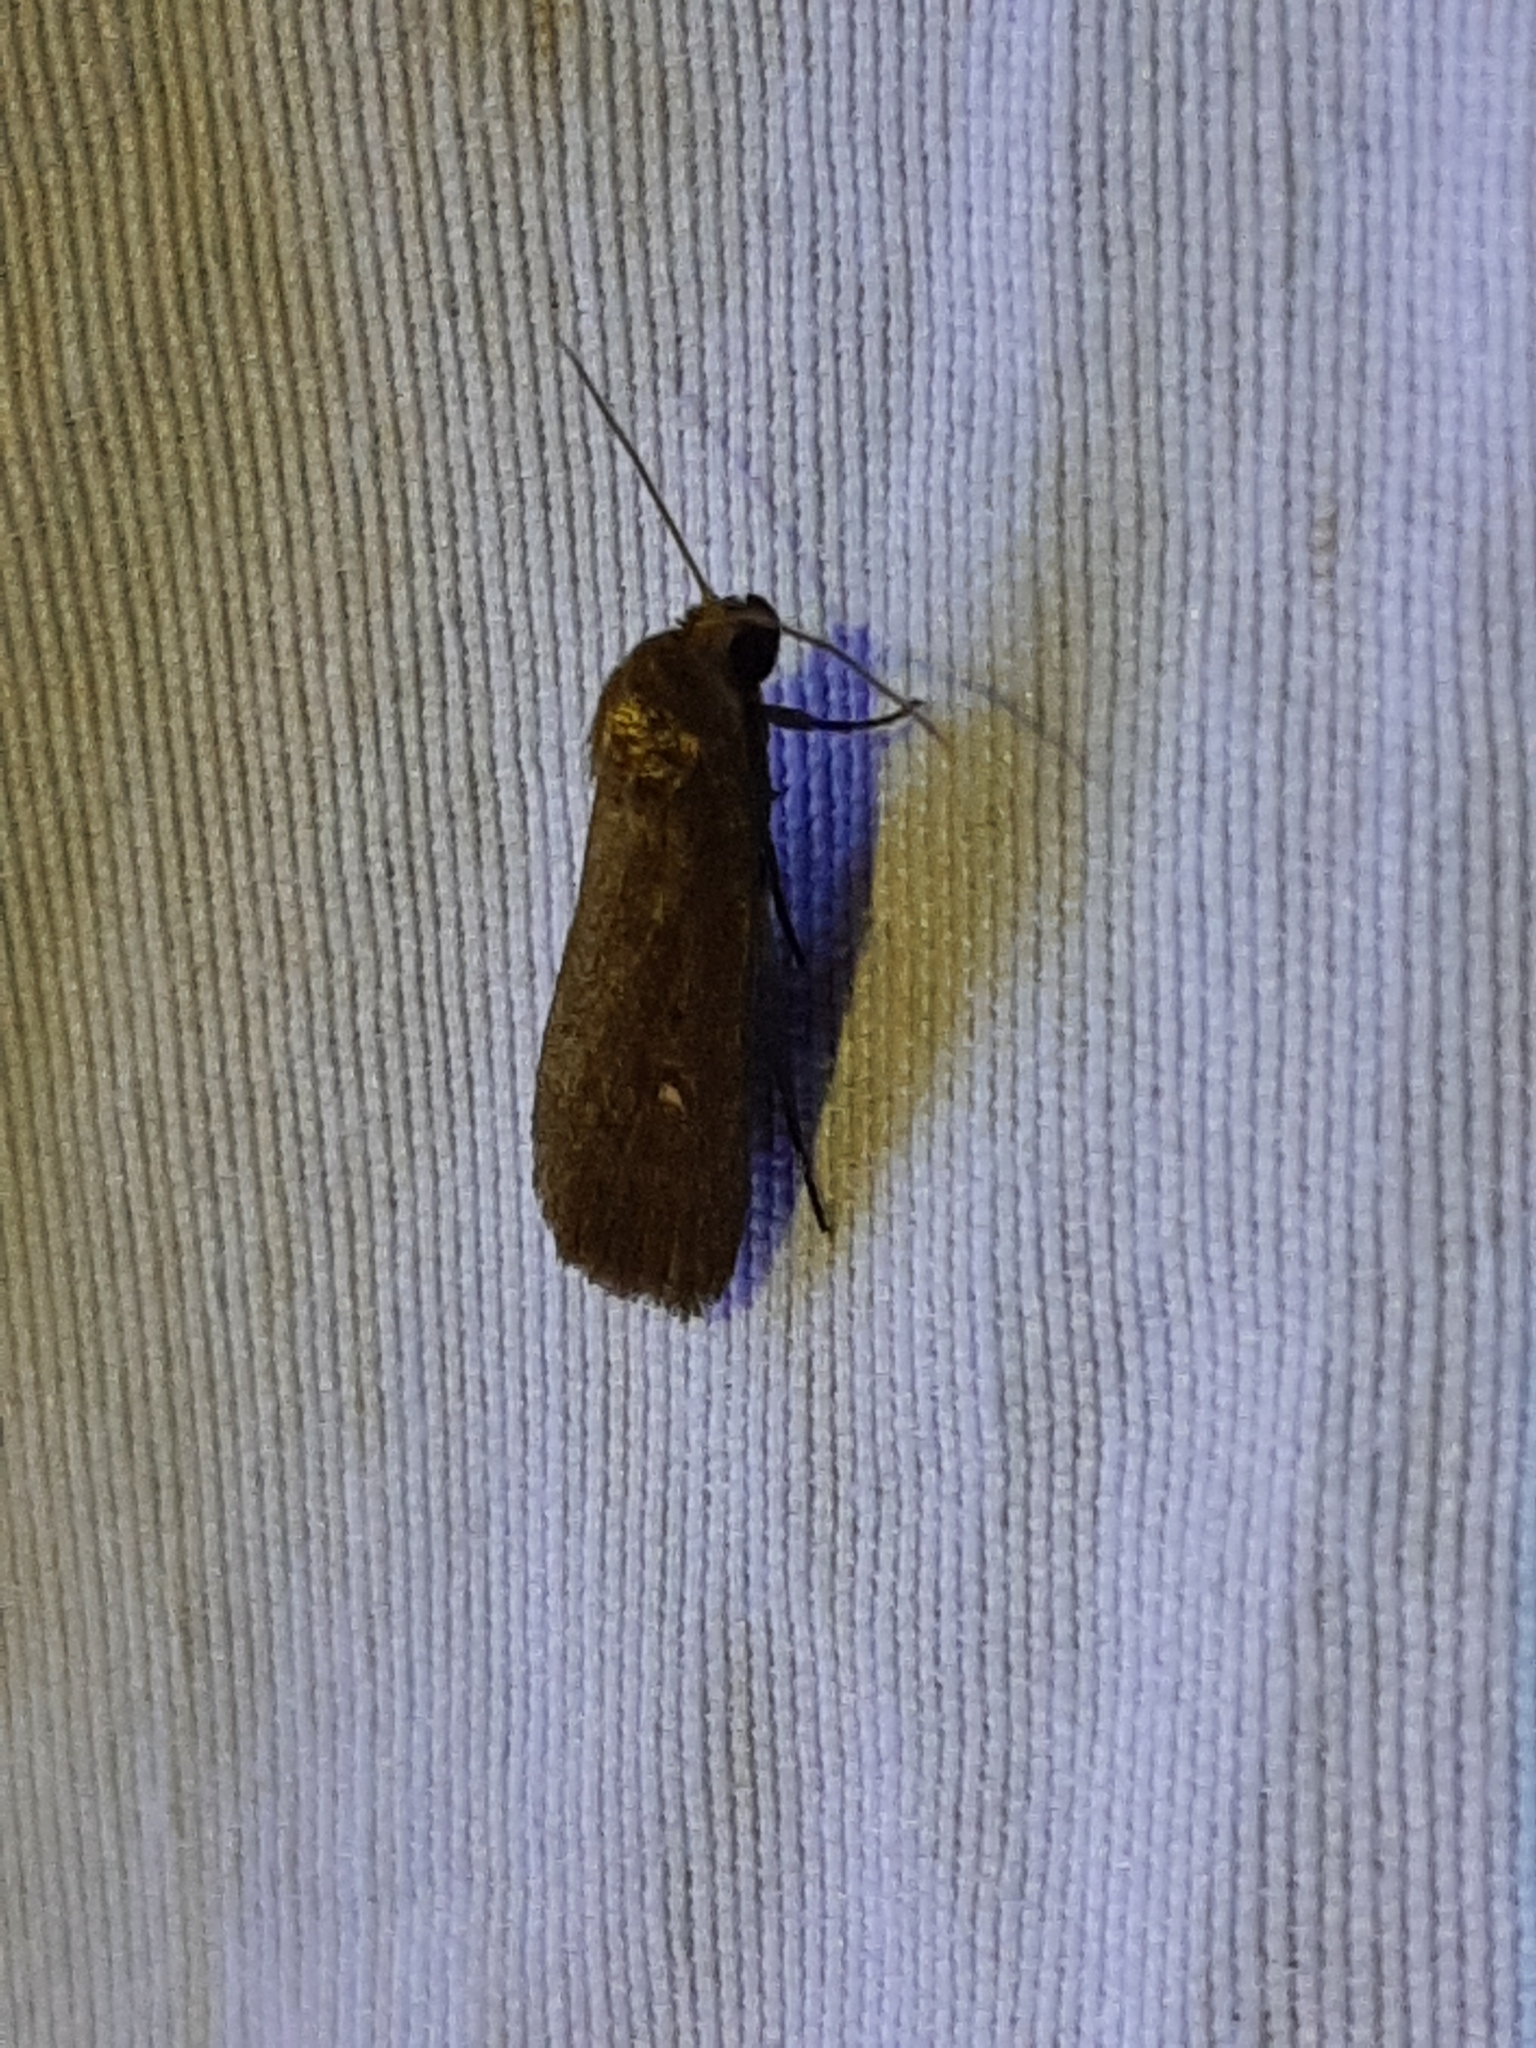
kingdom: Animalia
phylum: Arthropoda
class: Insecta
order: Lepidoptera
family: Noctuidae
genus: Proxenus
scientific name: Proxenus miranda
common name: Miranda moth
